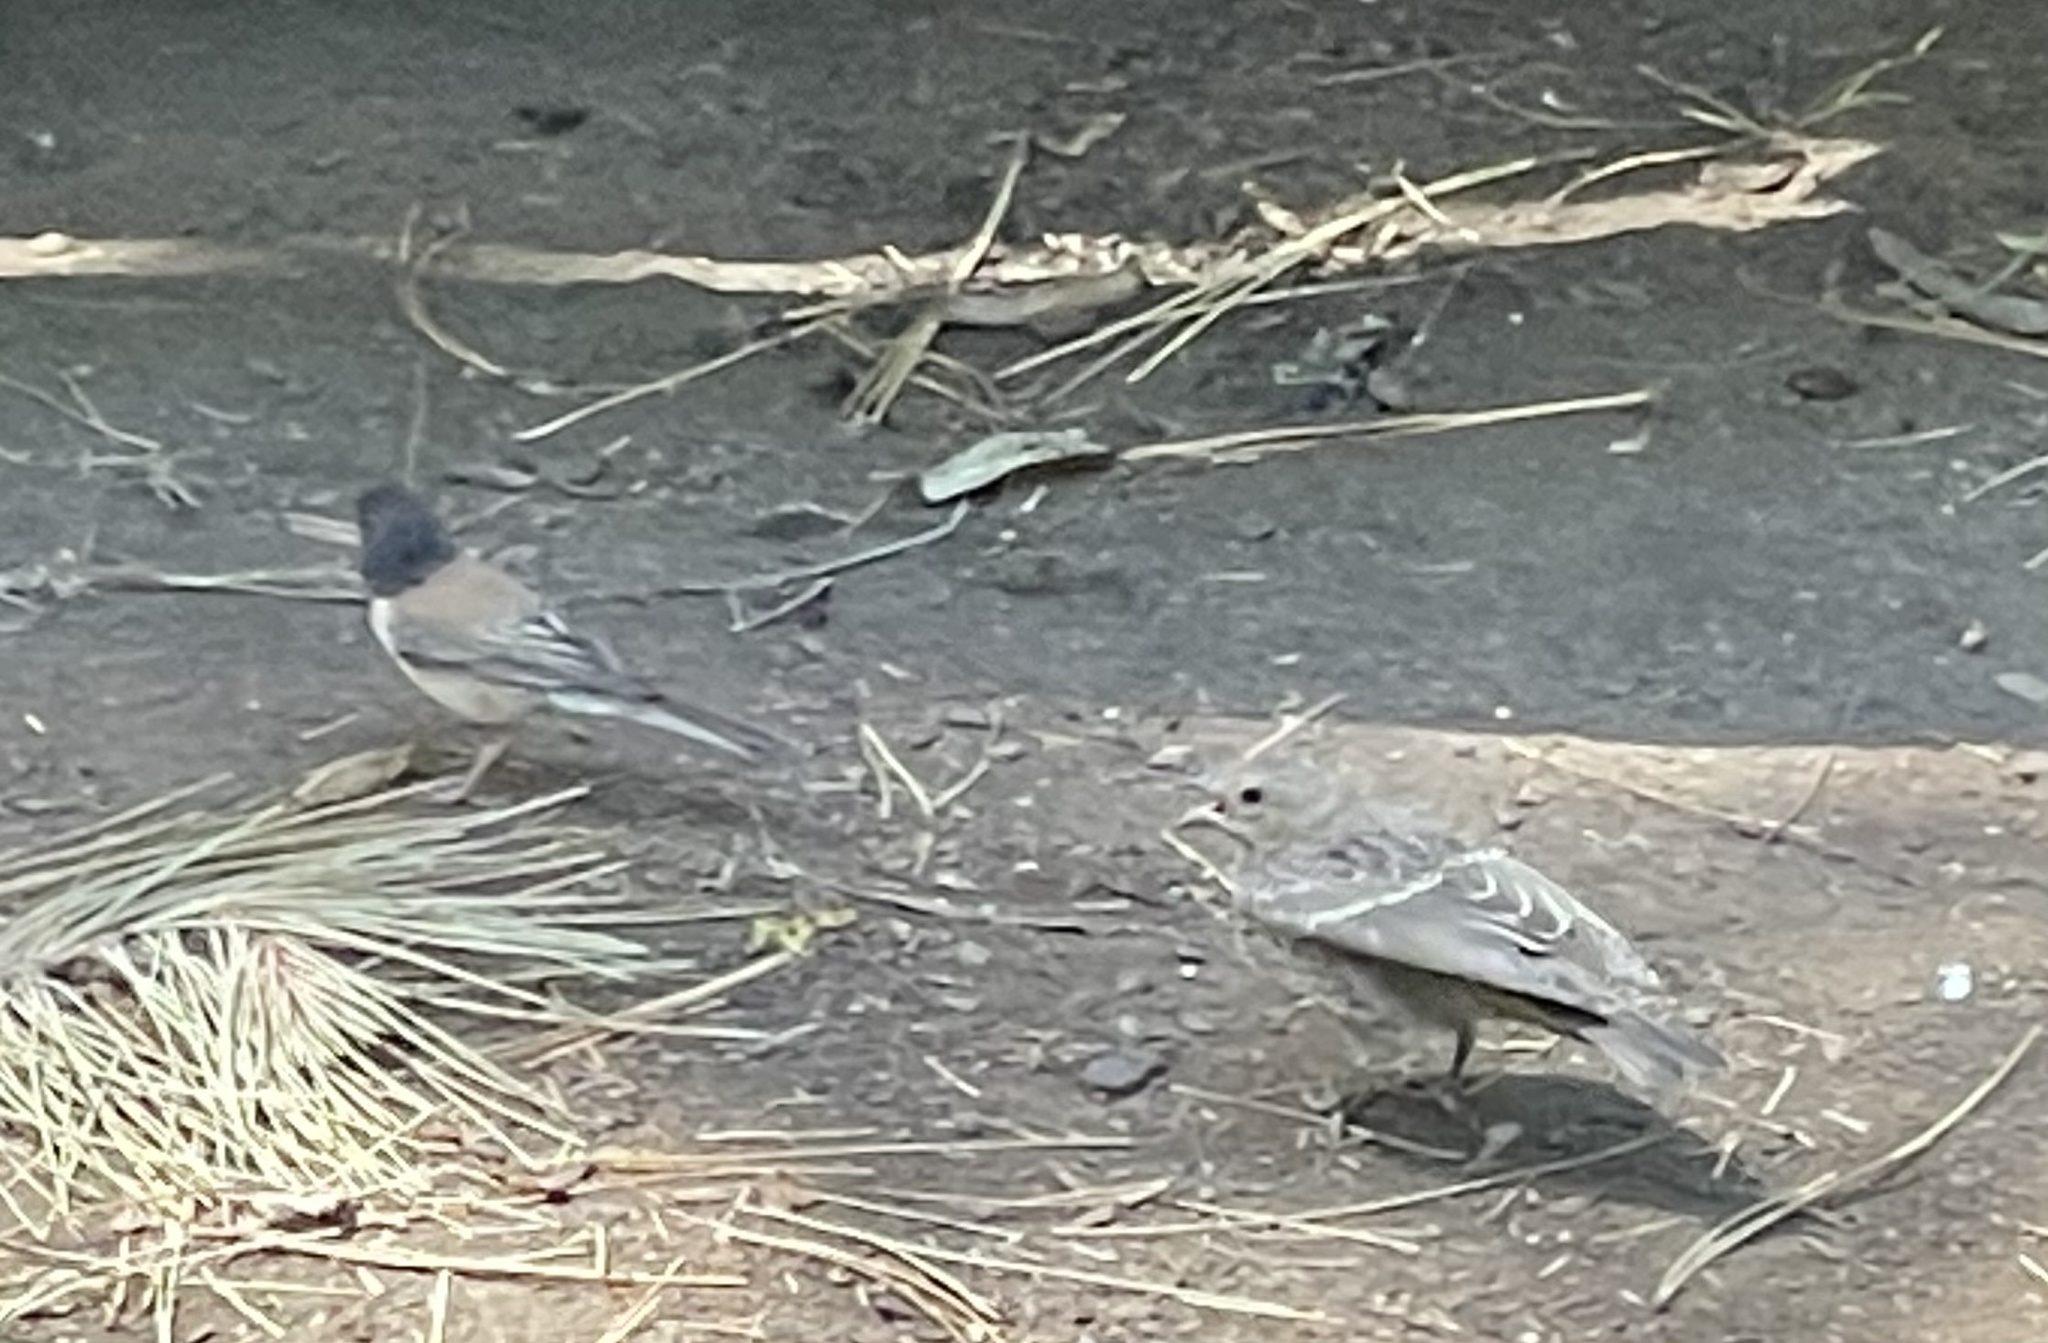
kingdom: Animalia
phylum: Chordata
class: Aves
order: Passeriformes
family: Icteridae
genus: Molothrus
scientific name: Molothrus ater
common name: Brown-headed cowbird
